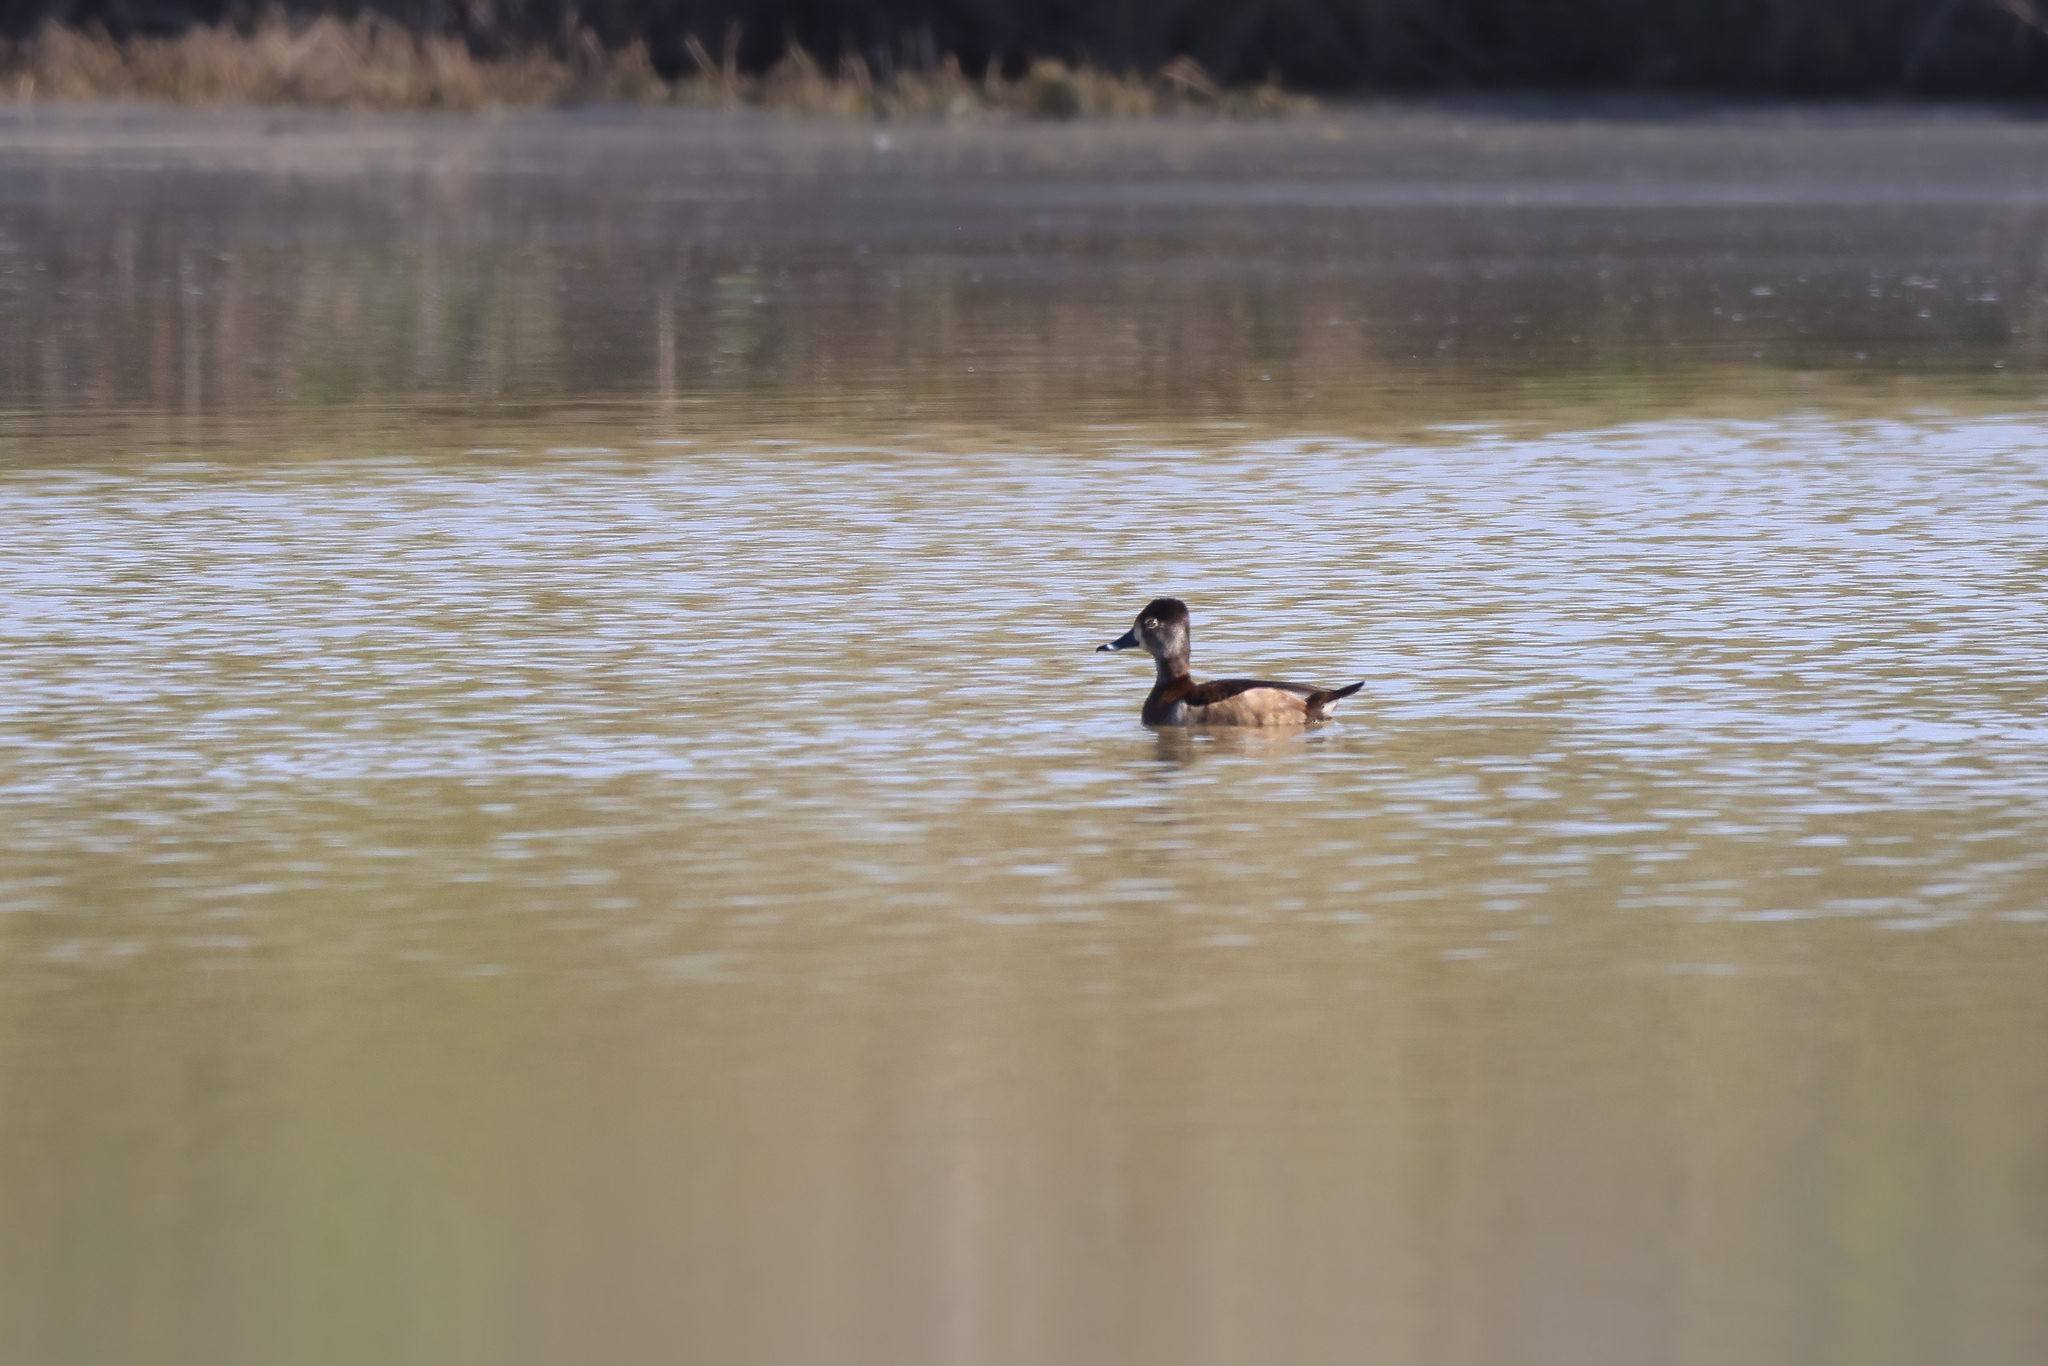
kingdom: Animalia
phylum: Chordata
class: Aves
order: Anseriformes
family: Anatidae
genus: Aythya
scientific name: Aythya collaris
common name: Ring-necked duck
